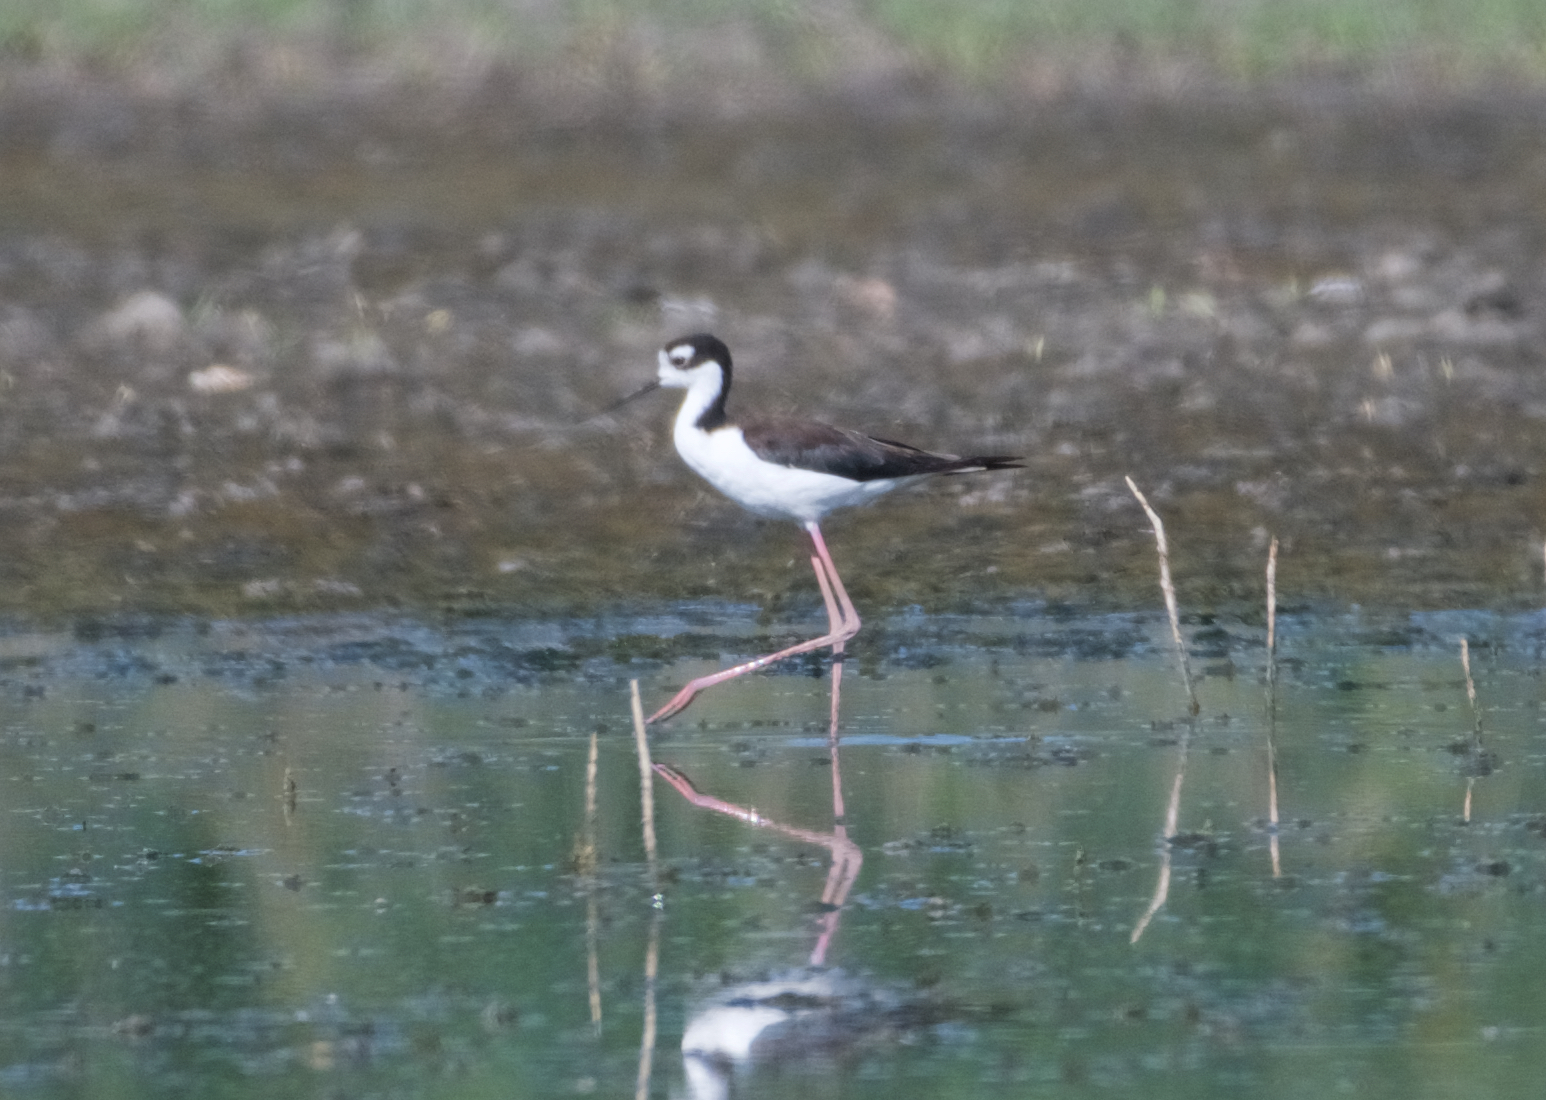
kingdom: Animalia
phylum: Chordata
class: Aves
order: Charadriiformes
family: Recurvirostridae
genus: Himantopus
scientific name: Himantopus mexicanus
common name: Black-necked stilt
